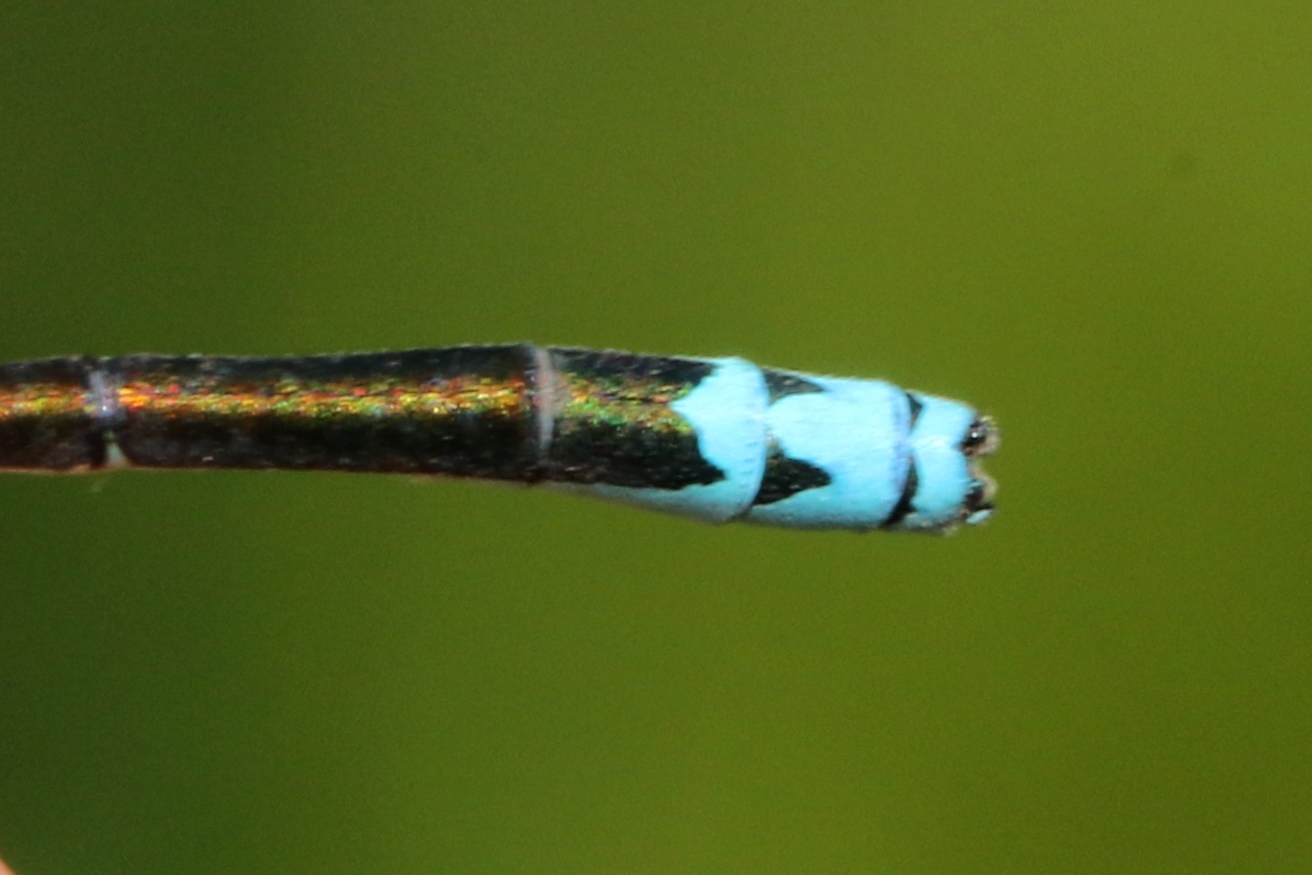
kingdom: Animalia
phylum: Arthropoda
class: Insecta
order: Odonata
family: Coenagrionidae
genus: Nehalennia
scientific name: Nehalennia irene
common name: Sedge sprite
